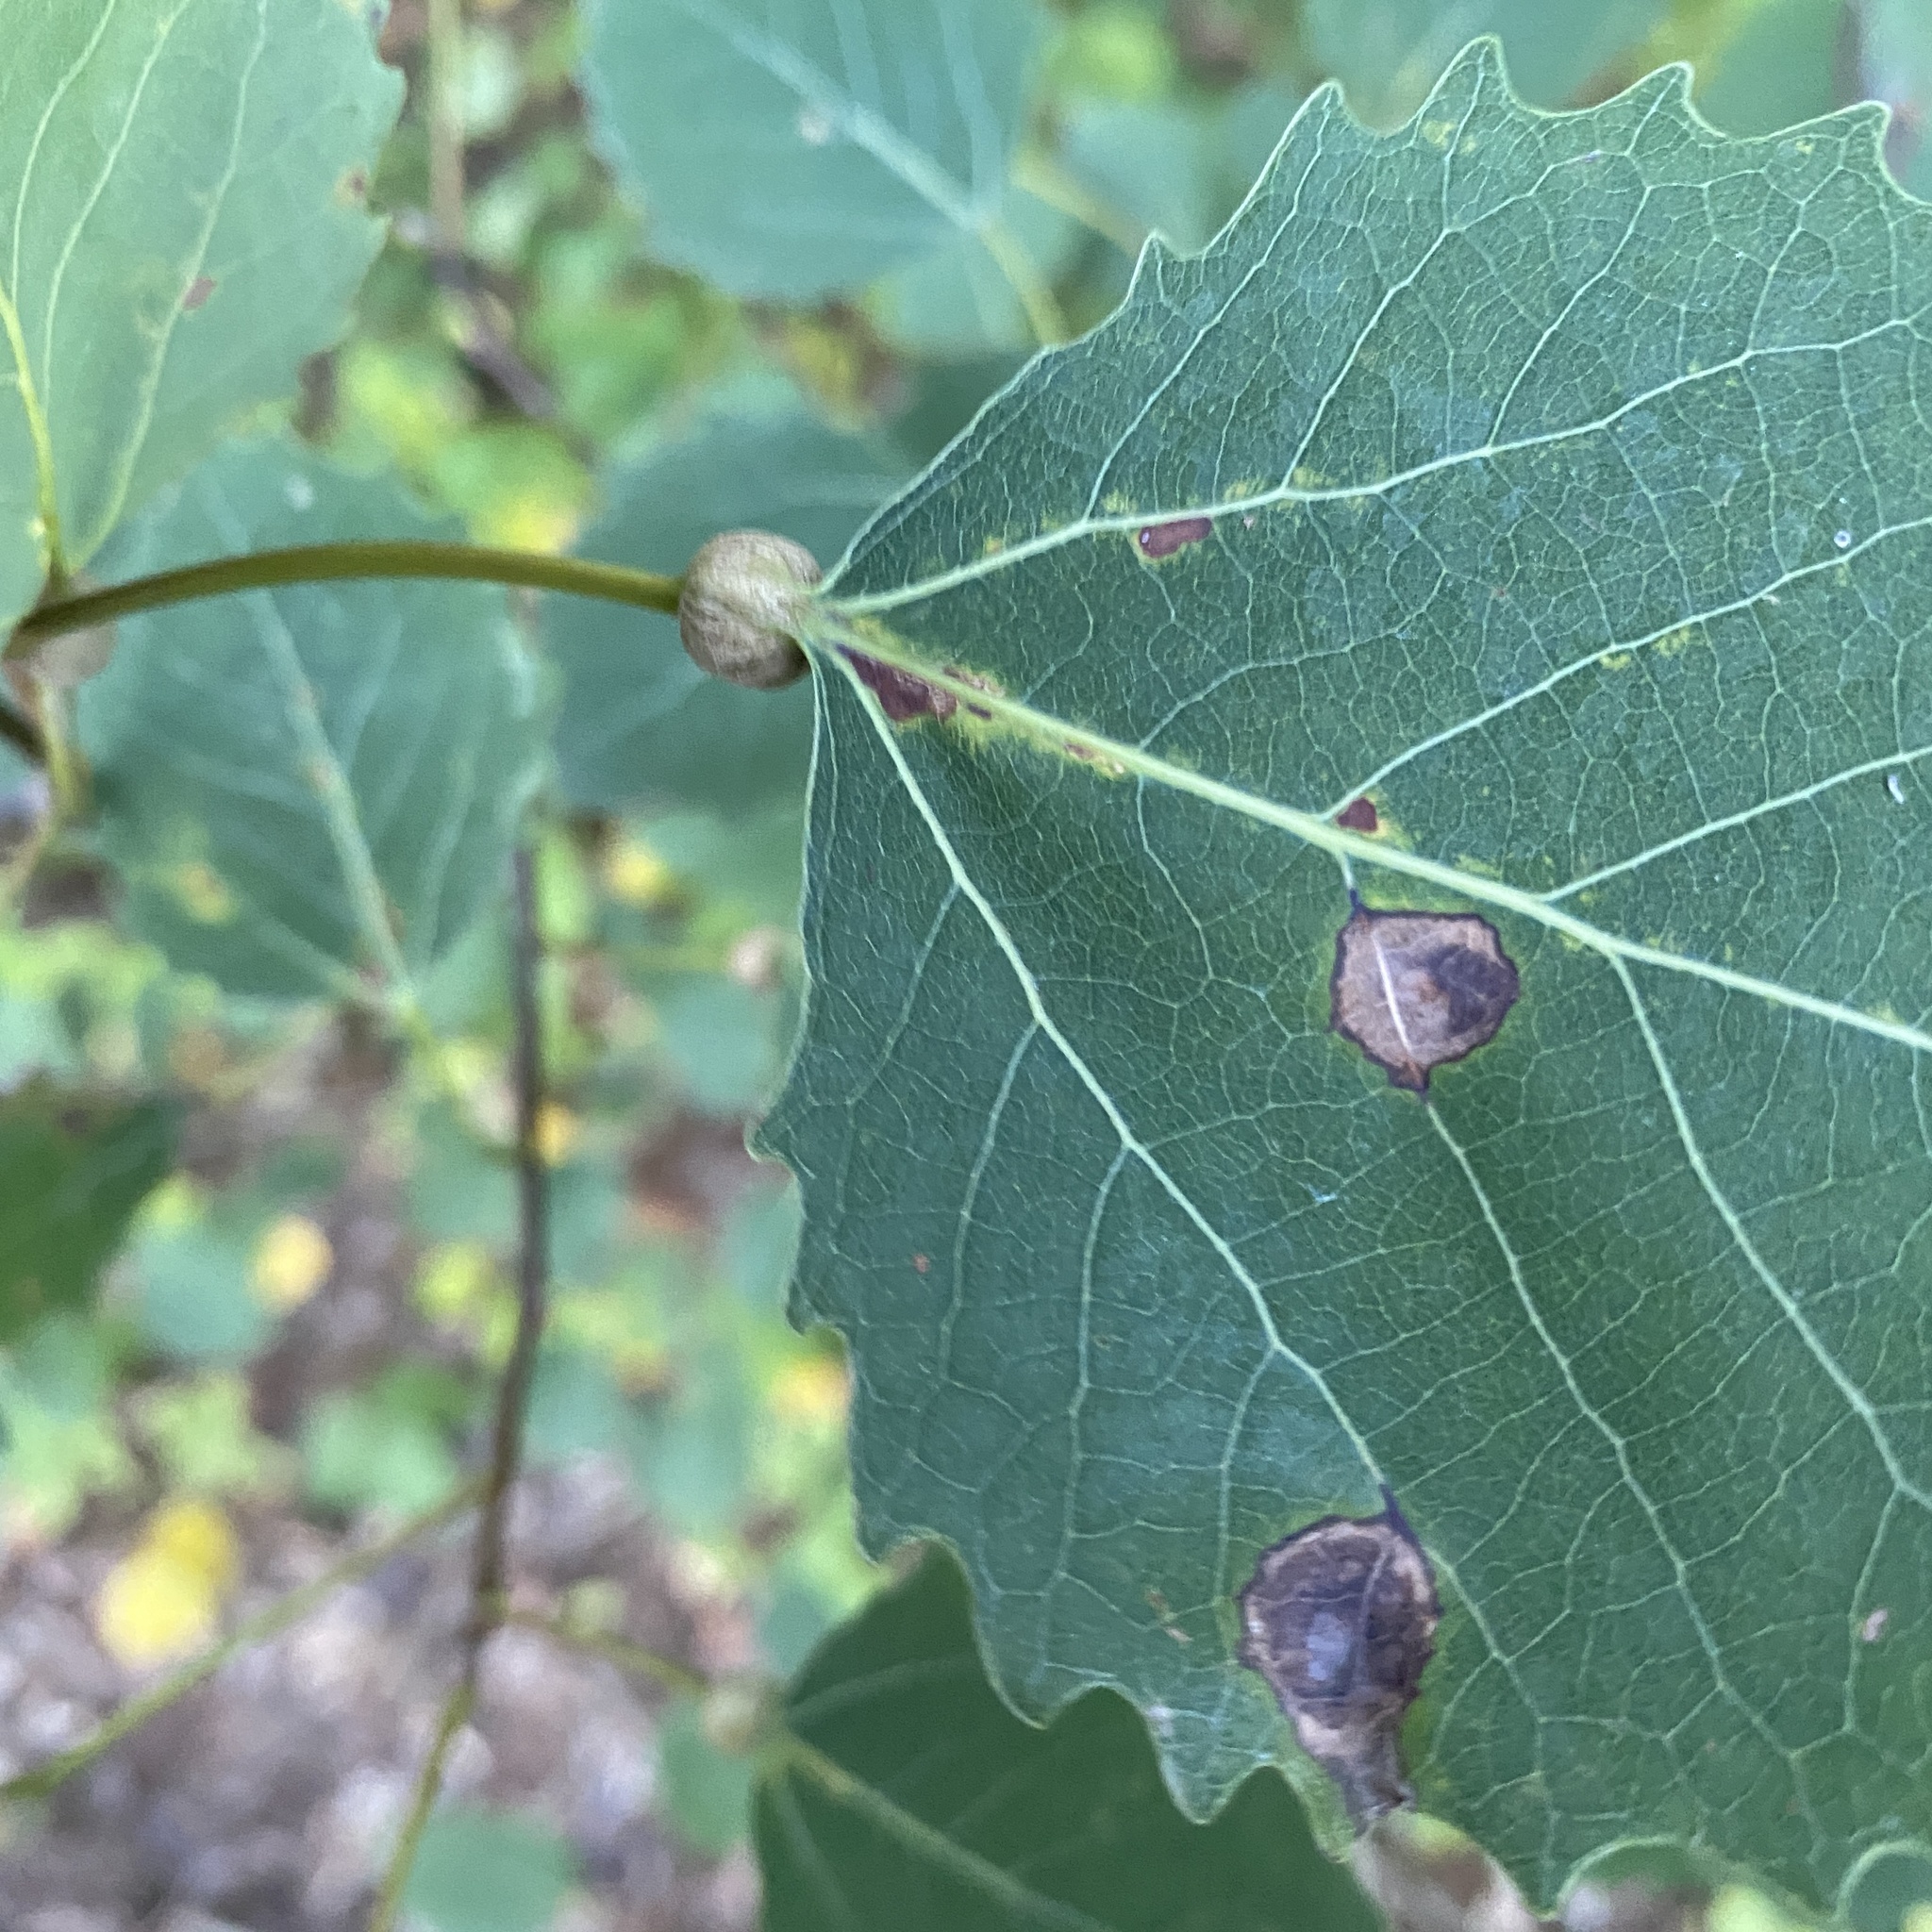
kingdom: Animalia
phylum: Arthropoda
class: Insecta
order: Lepidoptera
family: Nepticulidae
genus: Ectoedemia
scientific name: Ectoedemia populella
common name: Aspen petiole gall moth
